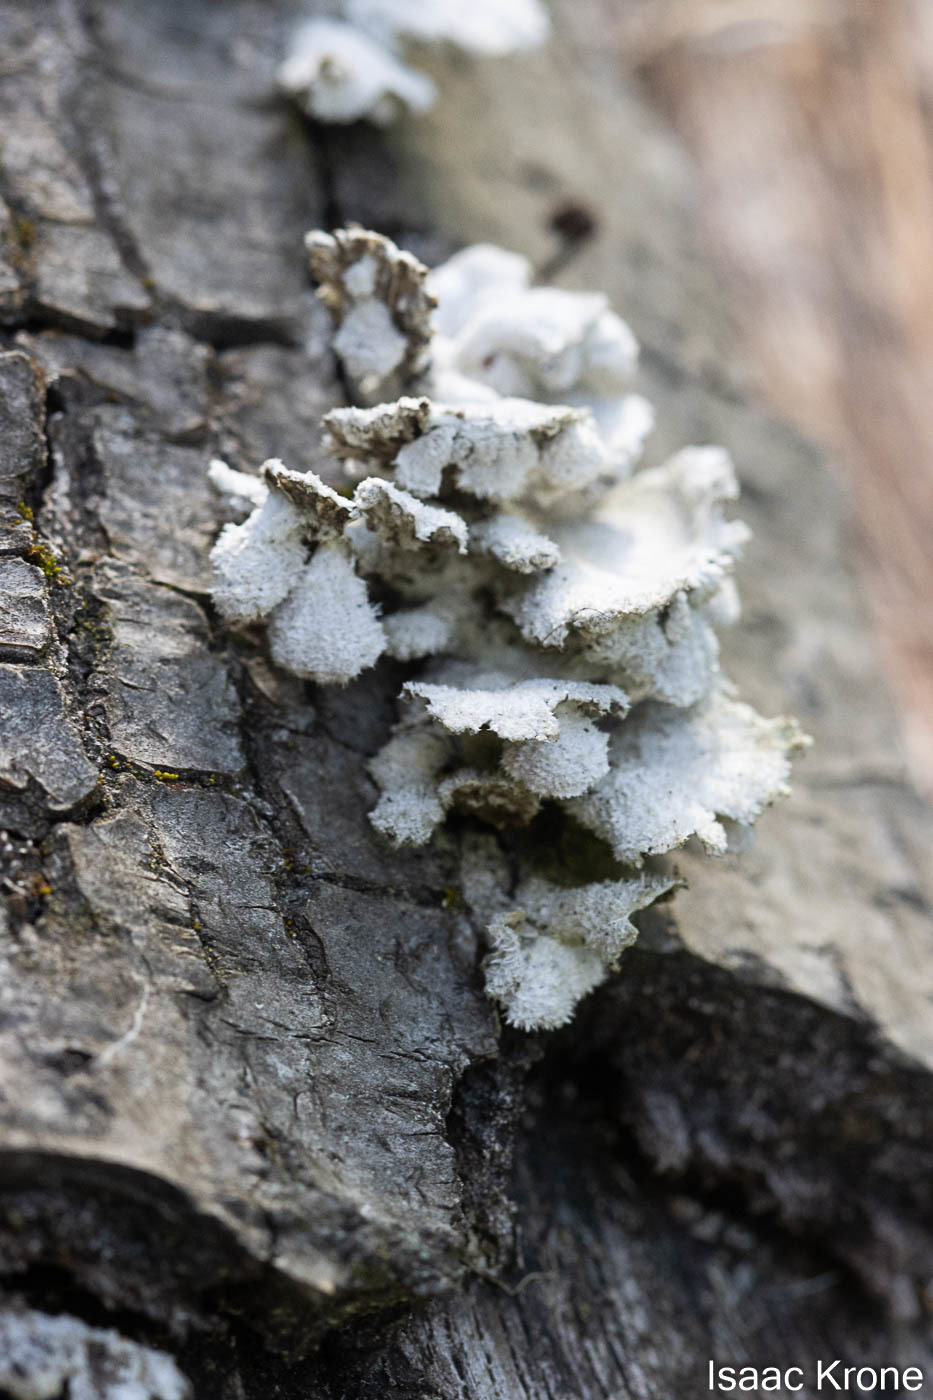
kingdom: Fungi
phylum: Basidiomycota
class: Agaricomycetes
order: Agaricales
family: Schizophyllaceae
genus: Schizophyllum
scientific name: Schizophyllum commune
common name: Common porecrust
